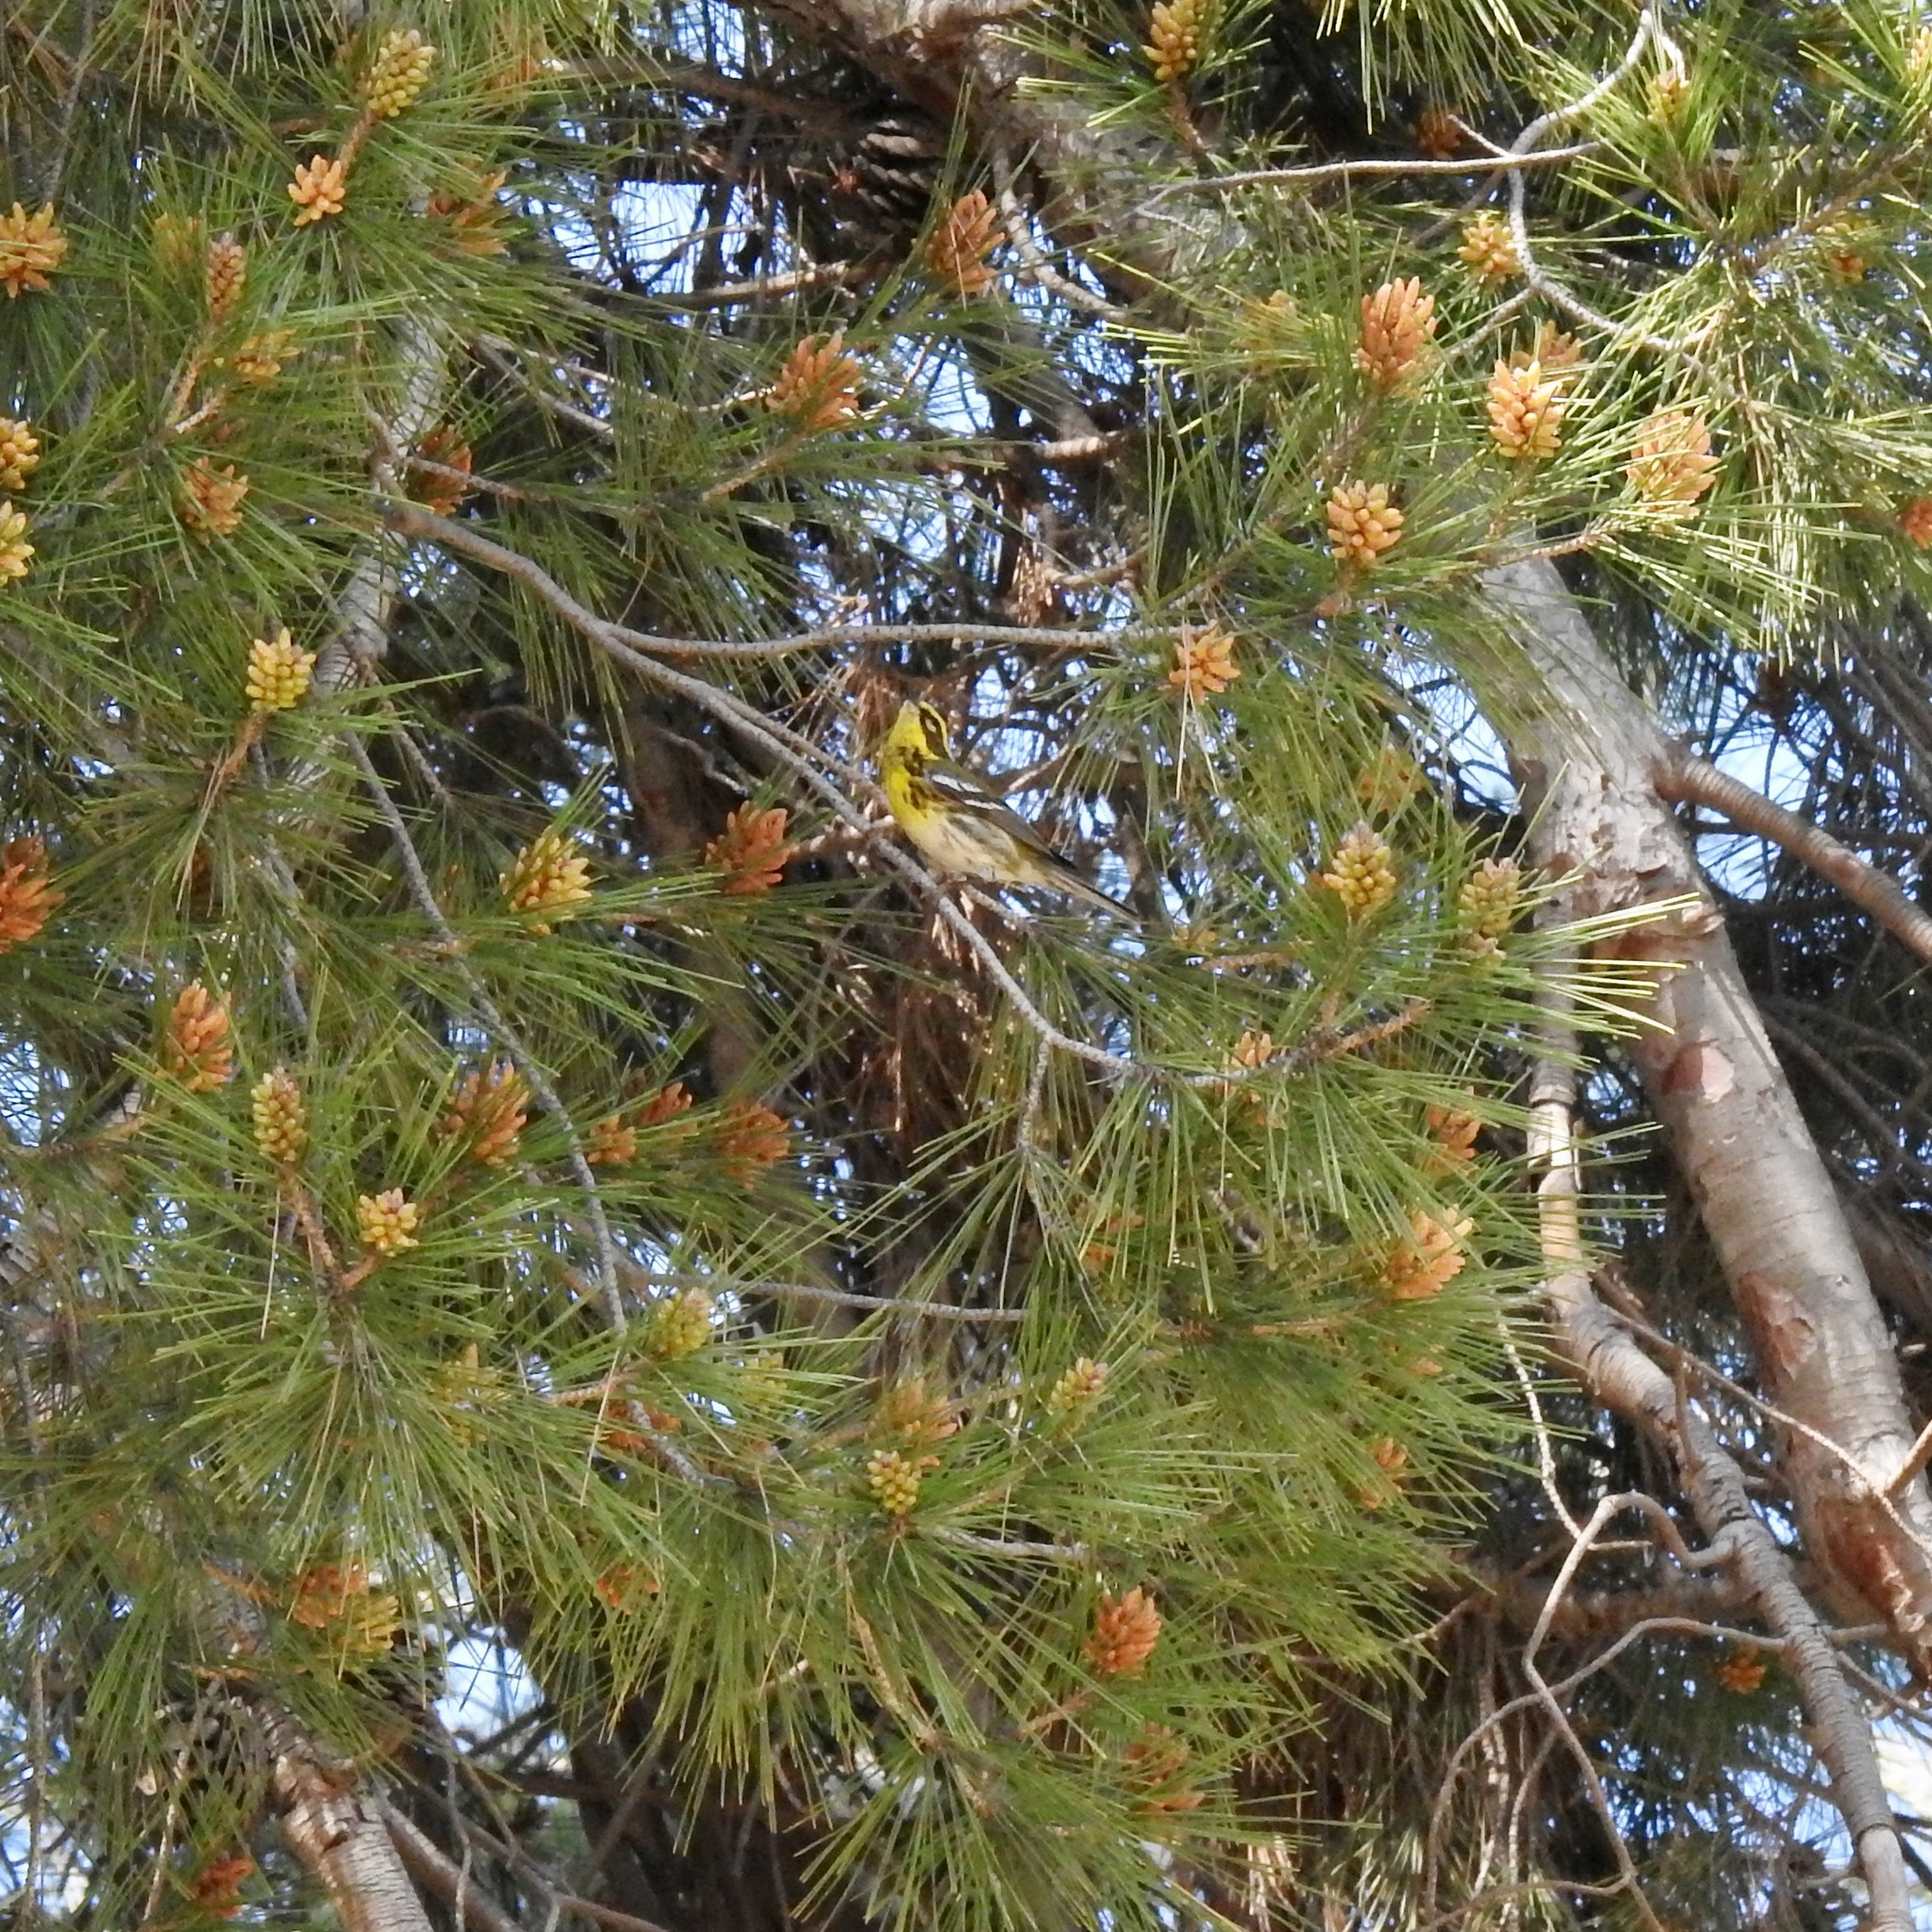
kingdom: Animalia
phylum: Chordata
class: Aves
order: Passeriformes
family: Parulidae
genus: Setophaga
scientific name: Setophaga townsendi
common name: Townsend's warbler
